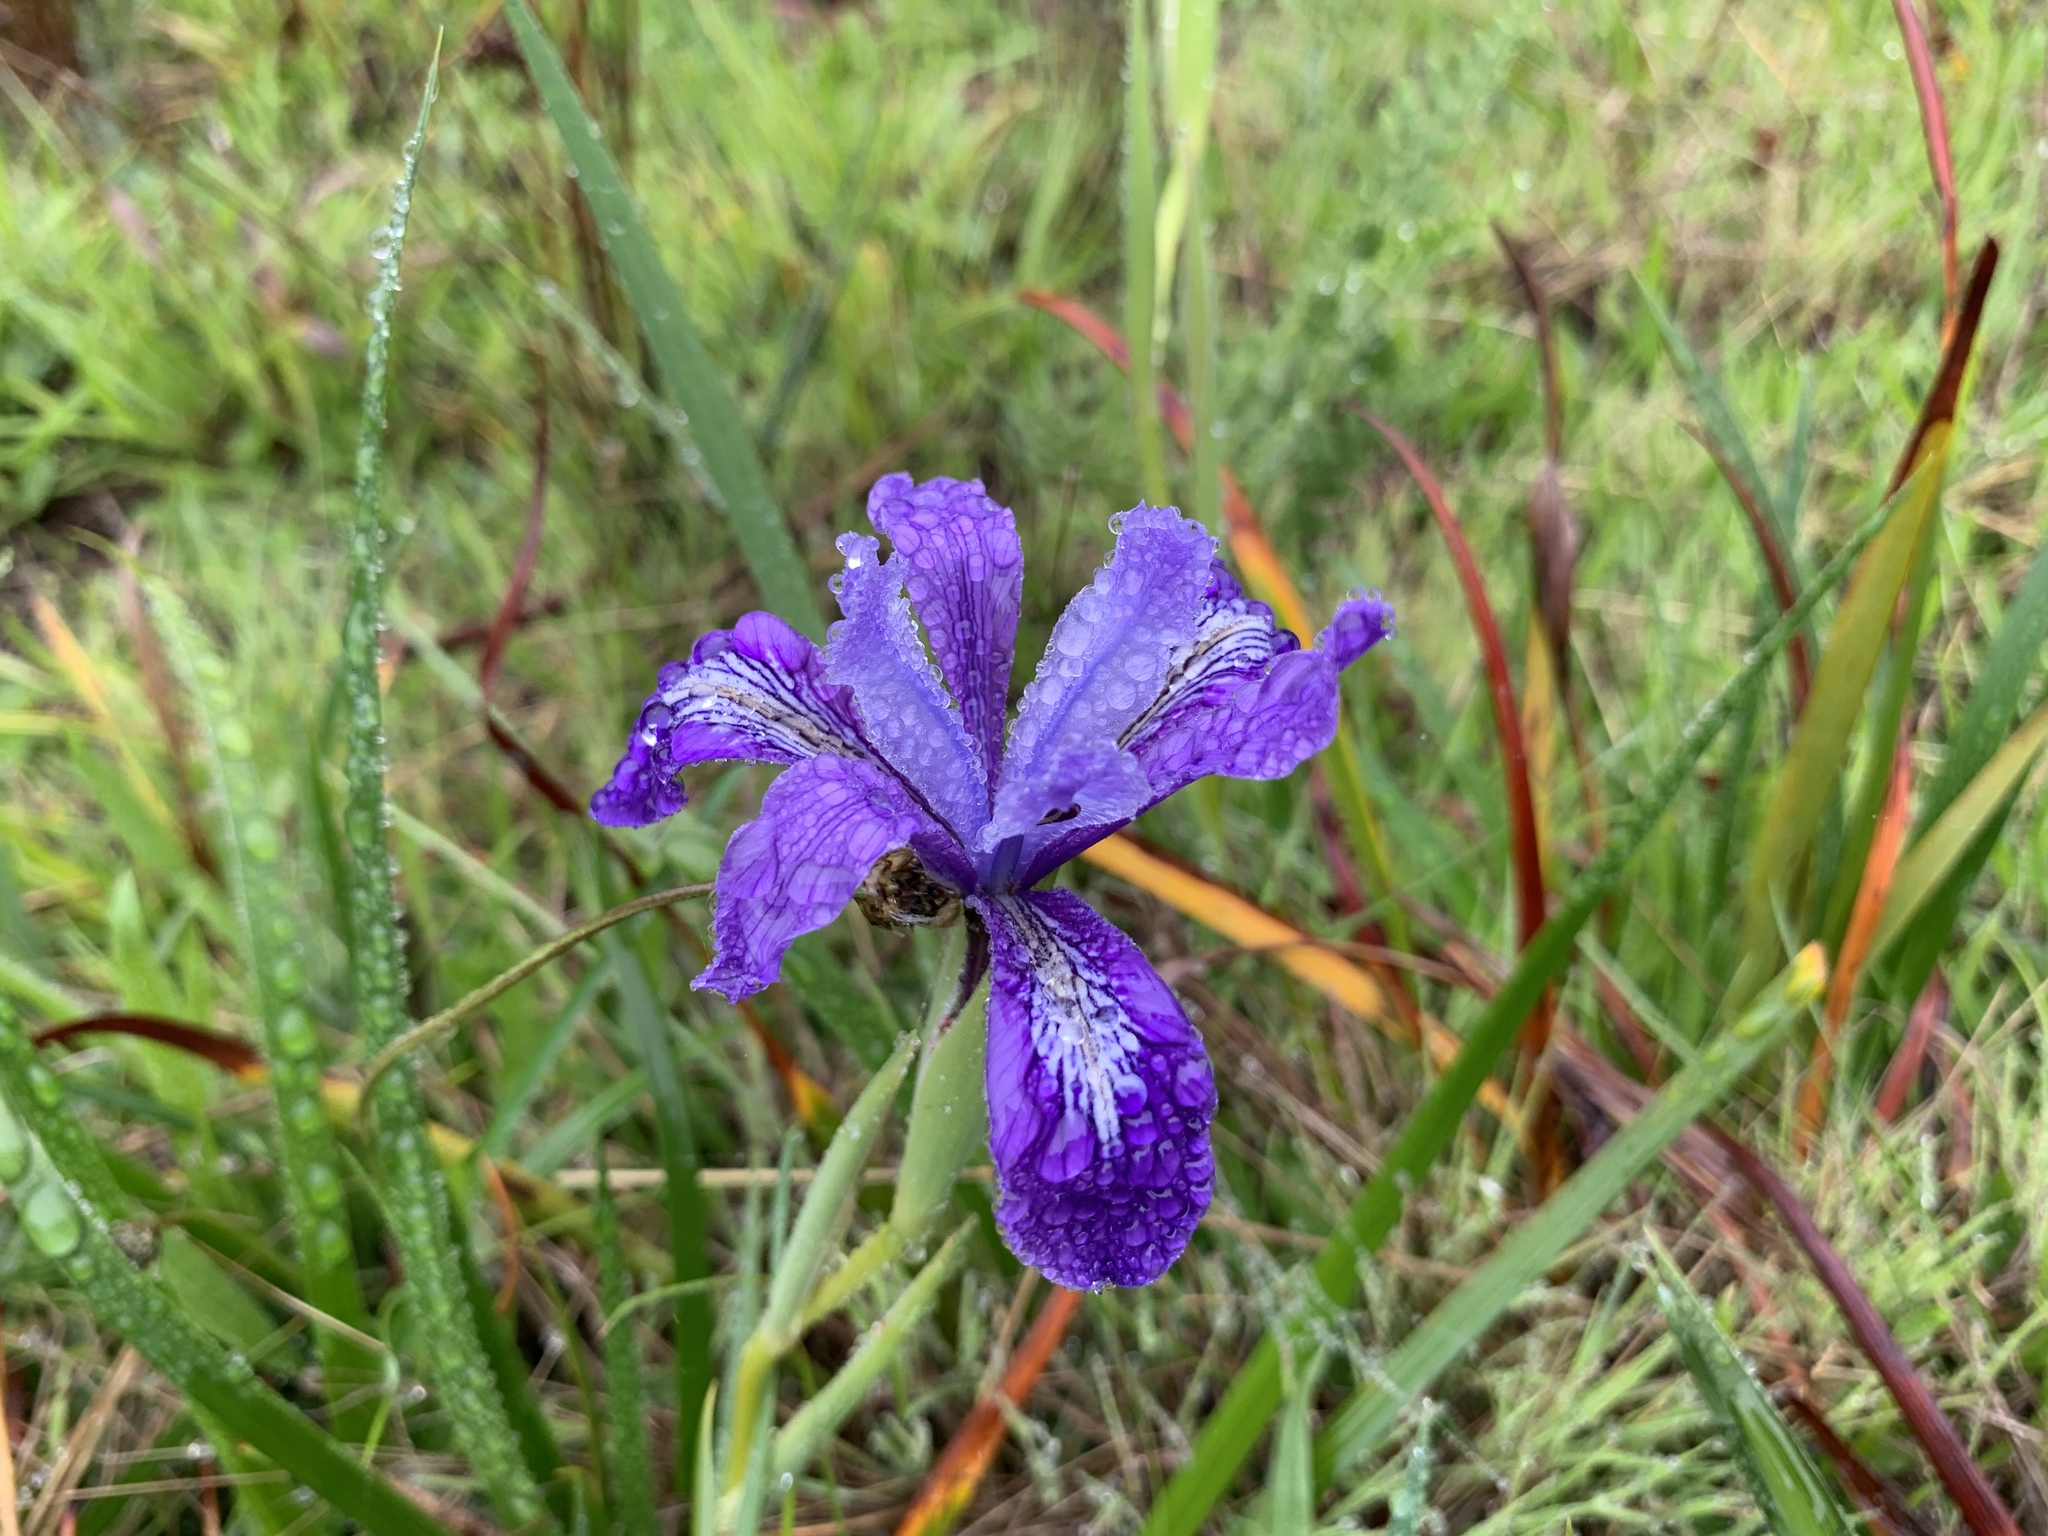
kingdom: Plantae
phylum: Tracheophyta
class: Liliopsida
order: Asparagales
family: Iridaceae
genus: Iris
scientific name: Iris douglasiana
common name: Marin iris
